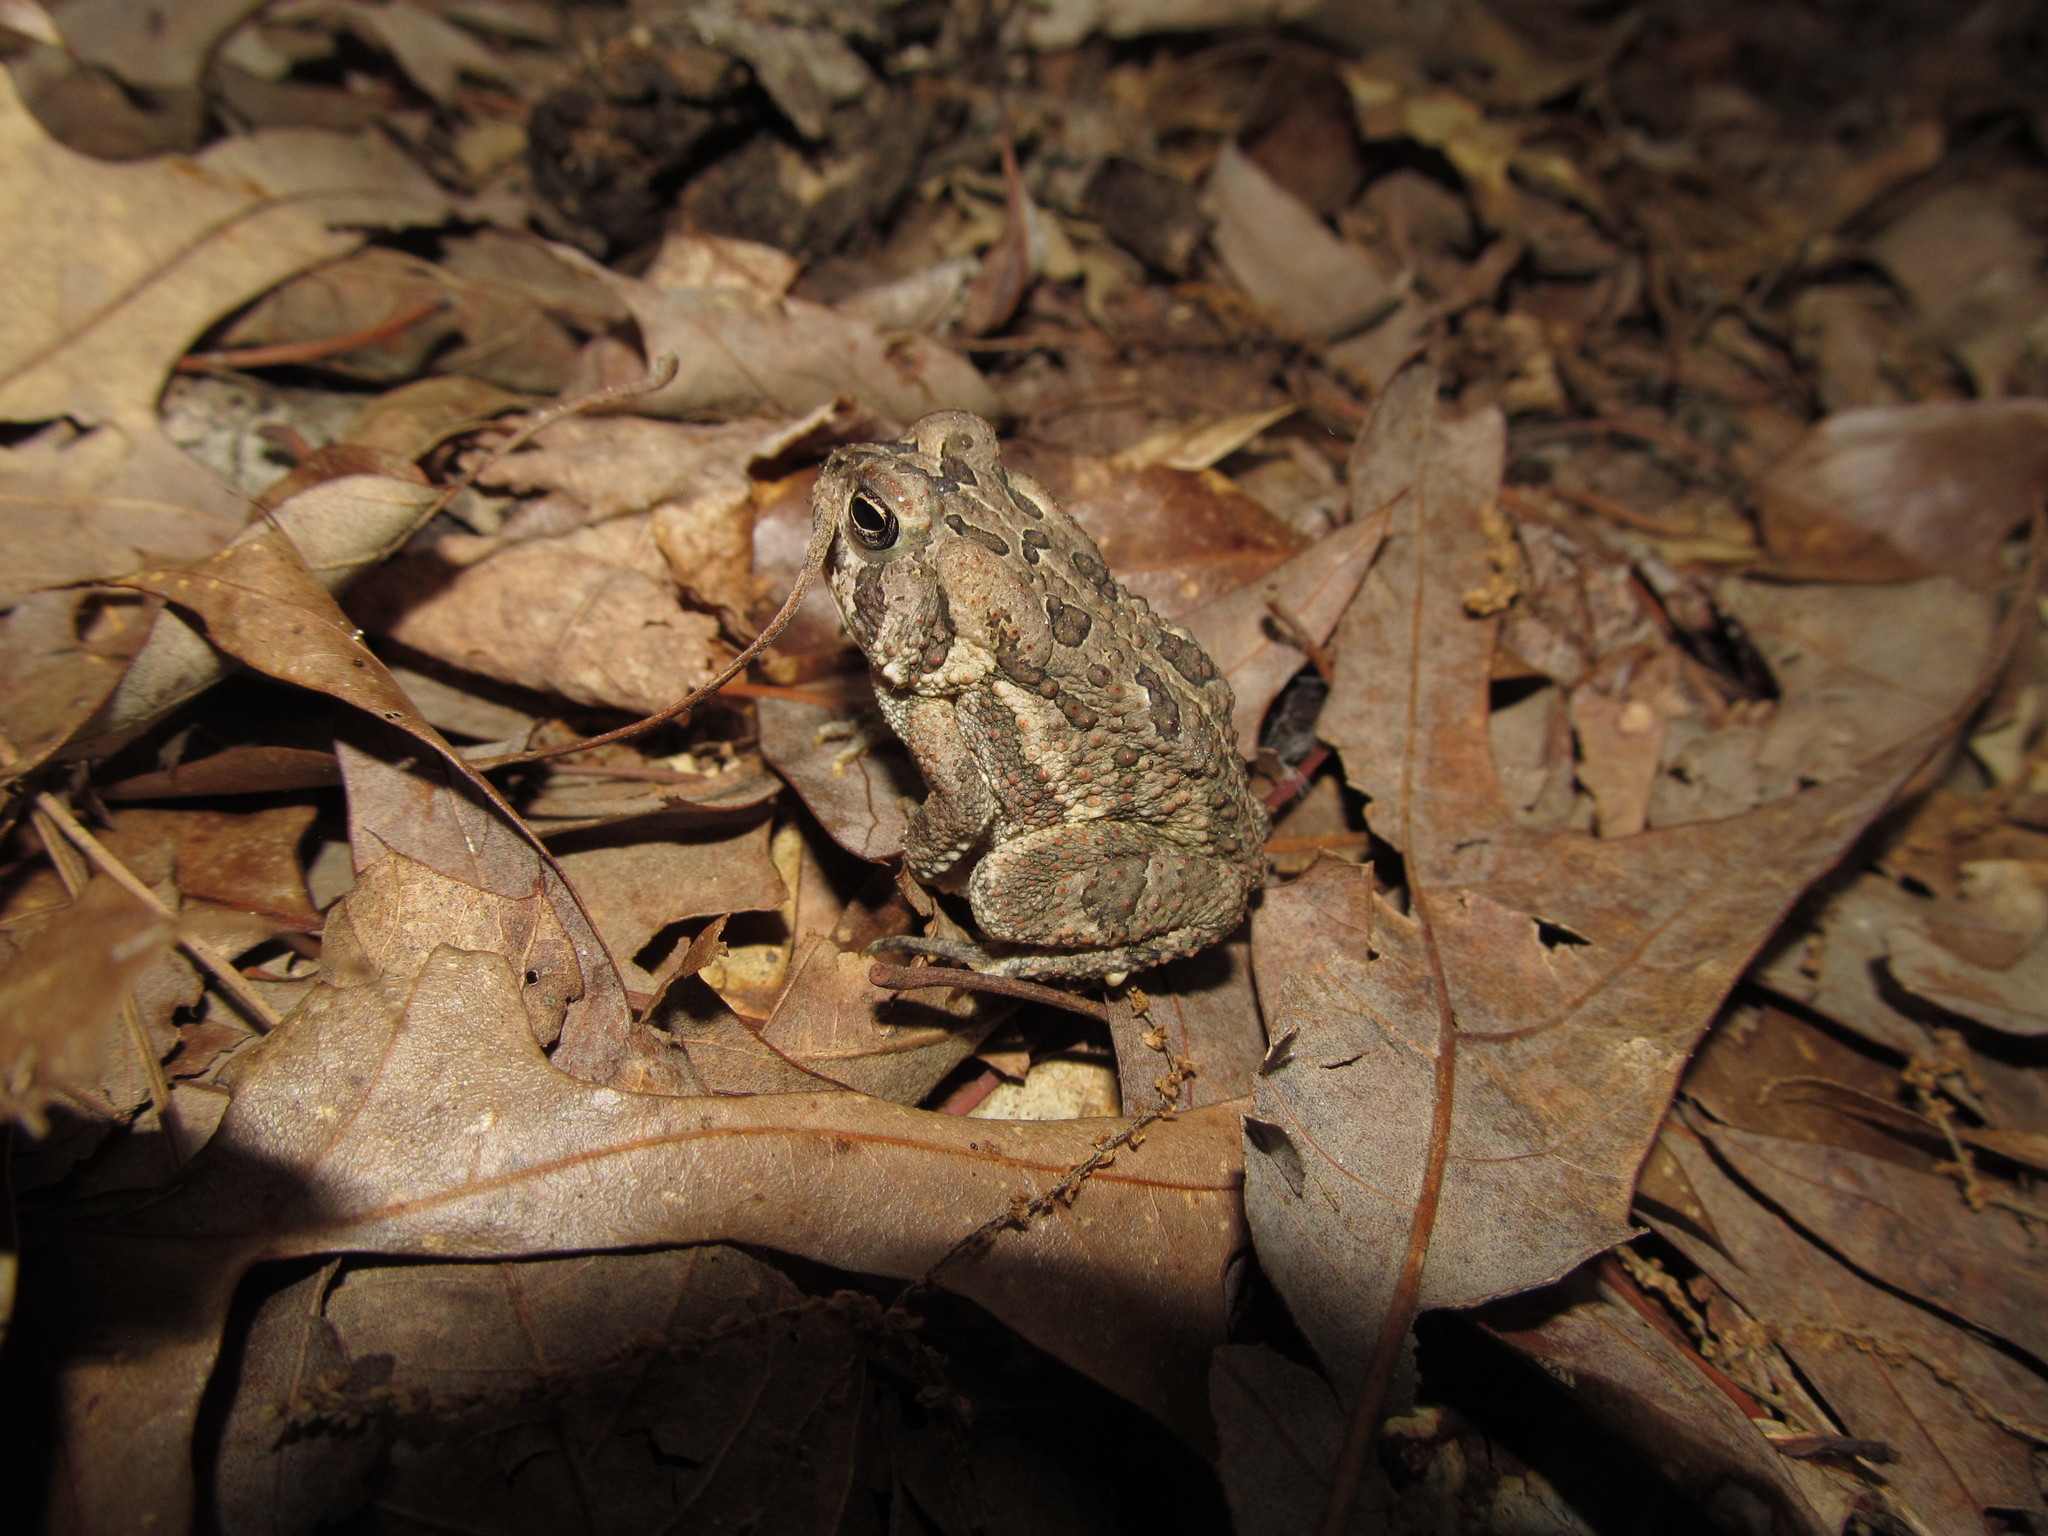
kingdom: Animalia
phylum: Chordata
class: Amphibia
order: Anura
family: Bufonidae
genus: Anaxyrus
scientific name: Anaxyrus fowleri
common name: Fowler's toad
